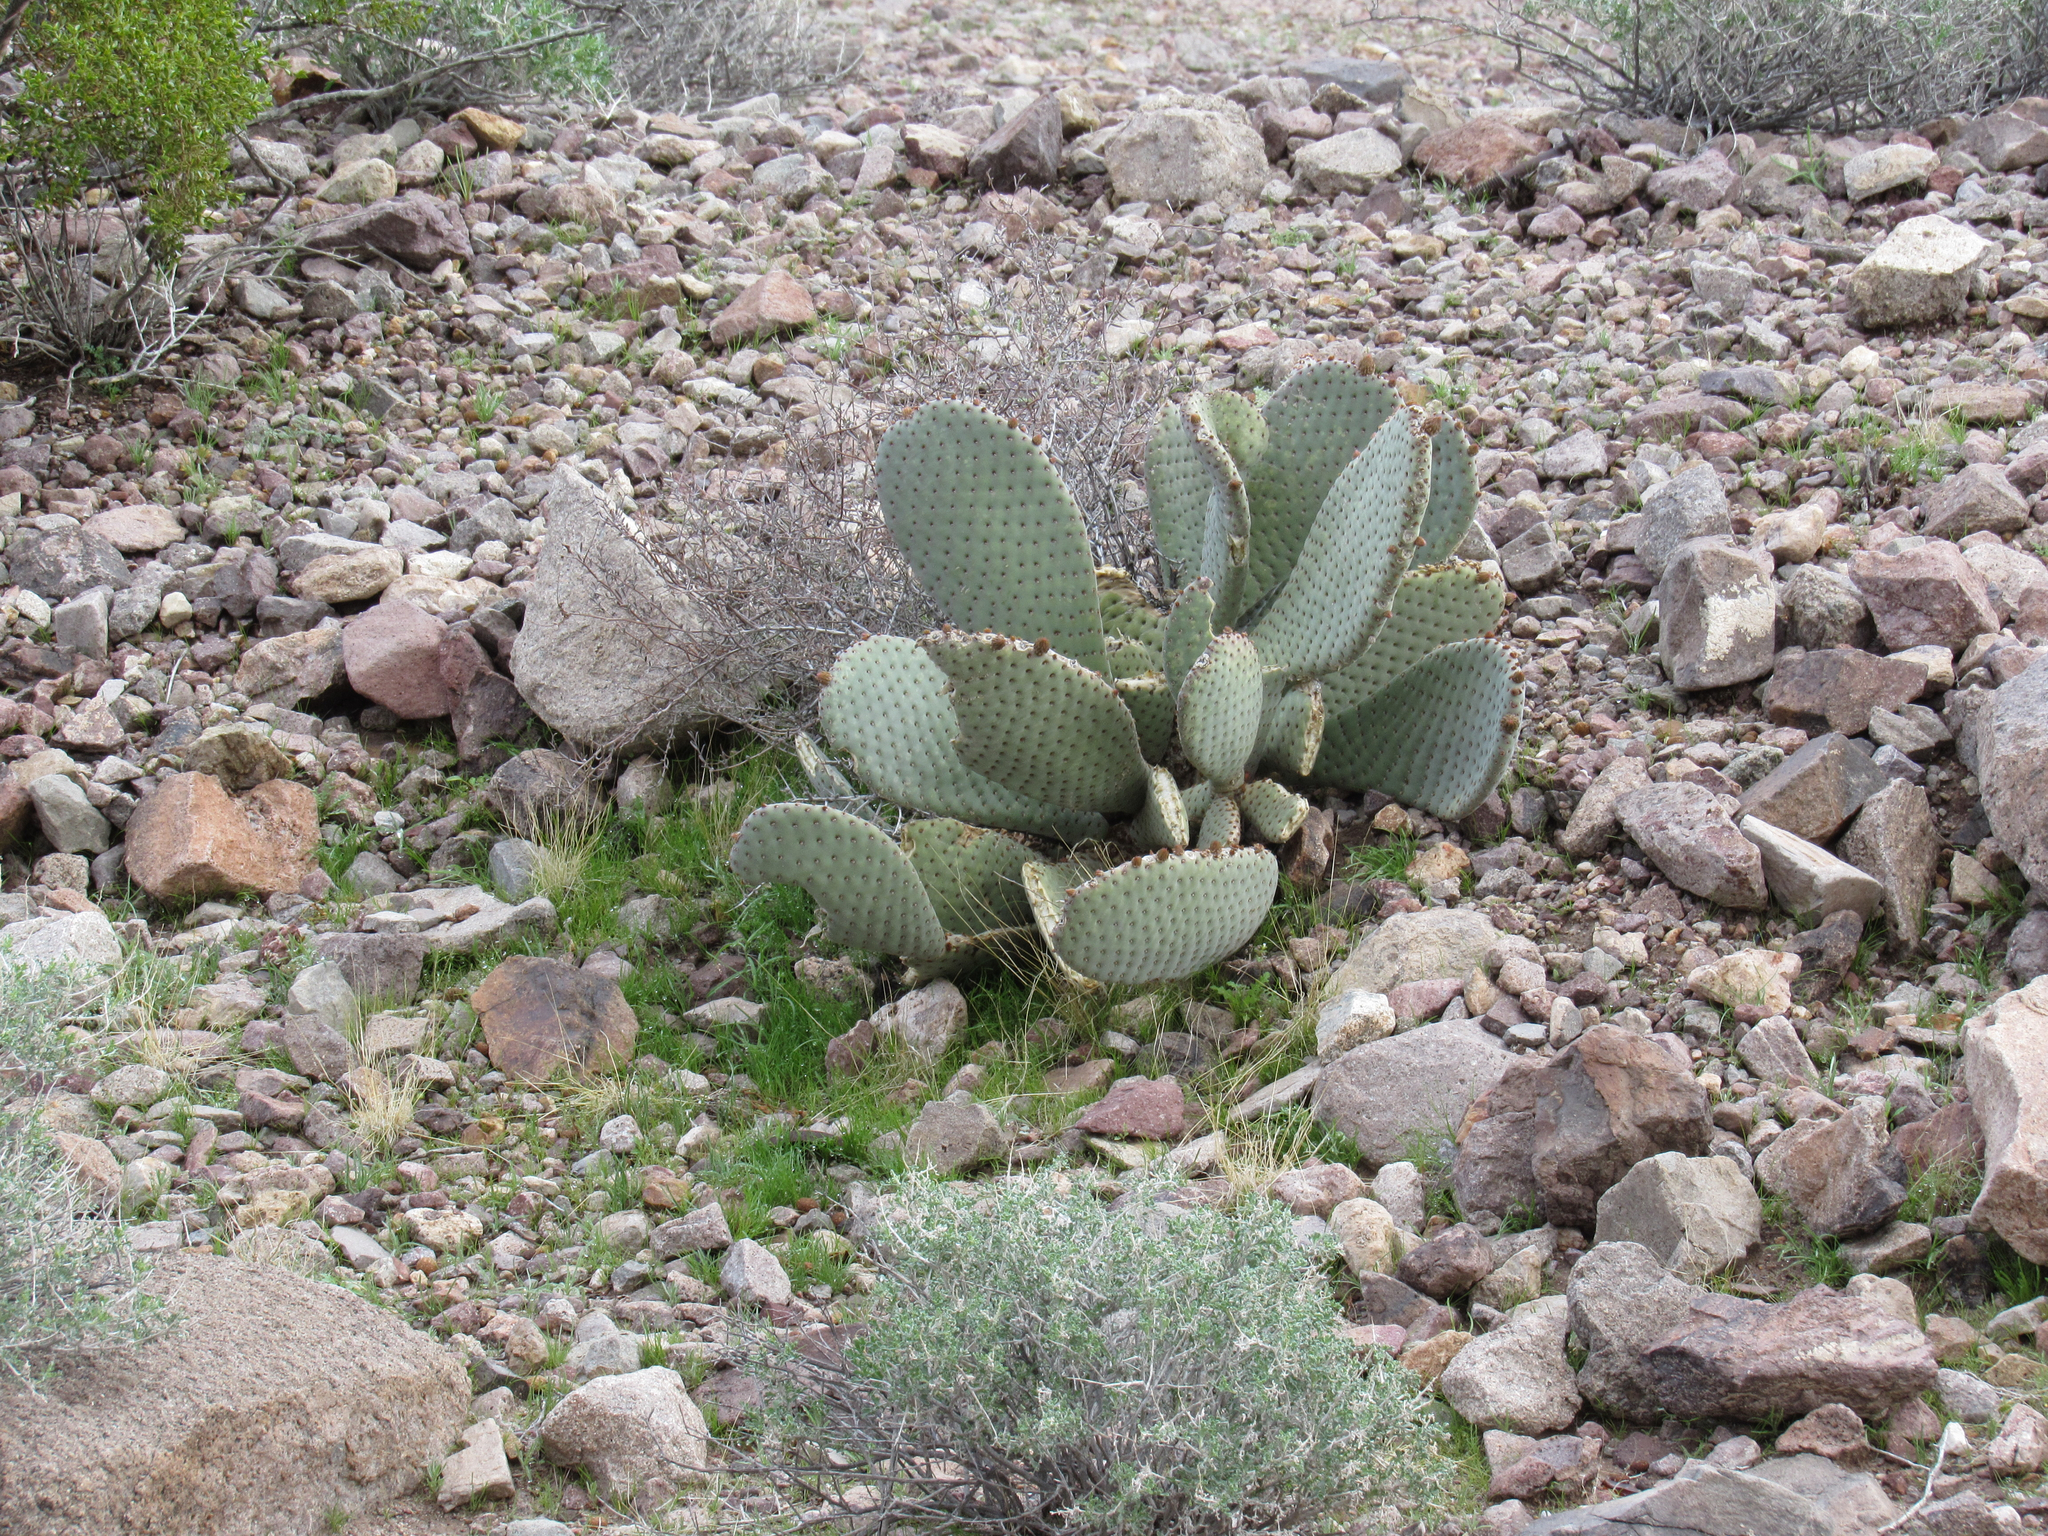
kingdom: Plantae
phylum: Tracheophyta
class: Magnoliopsida
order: Caryophyllales
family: Cactaceae
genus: Opuntia
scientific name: Opuntia basilaris
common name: Beavertail prickly-pear
